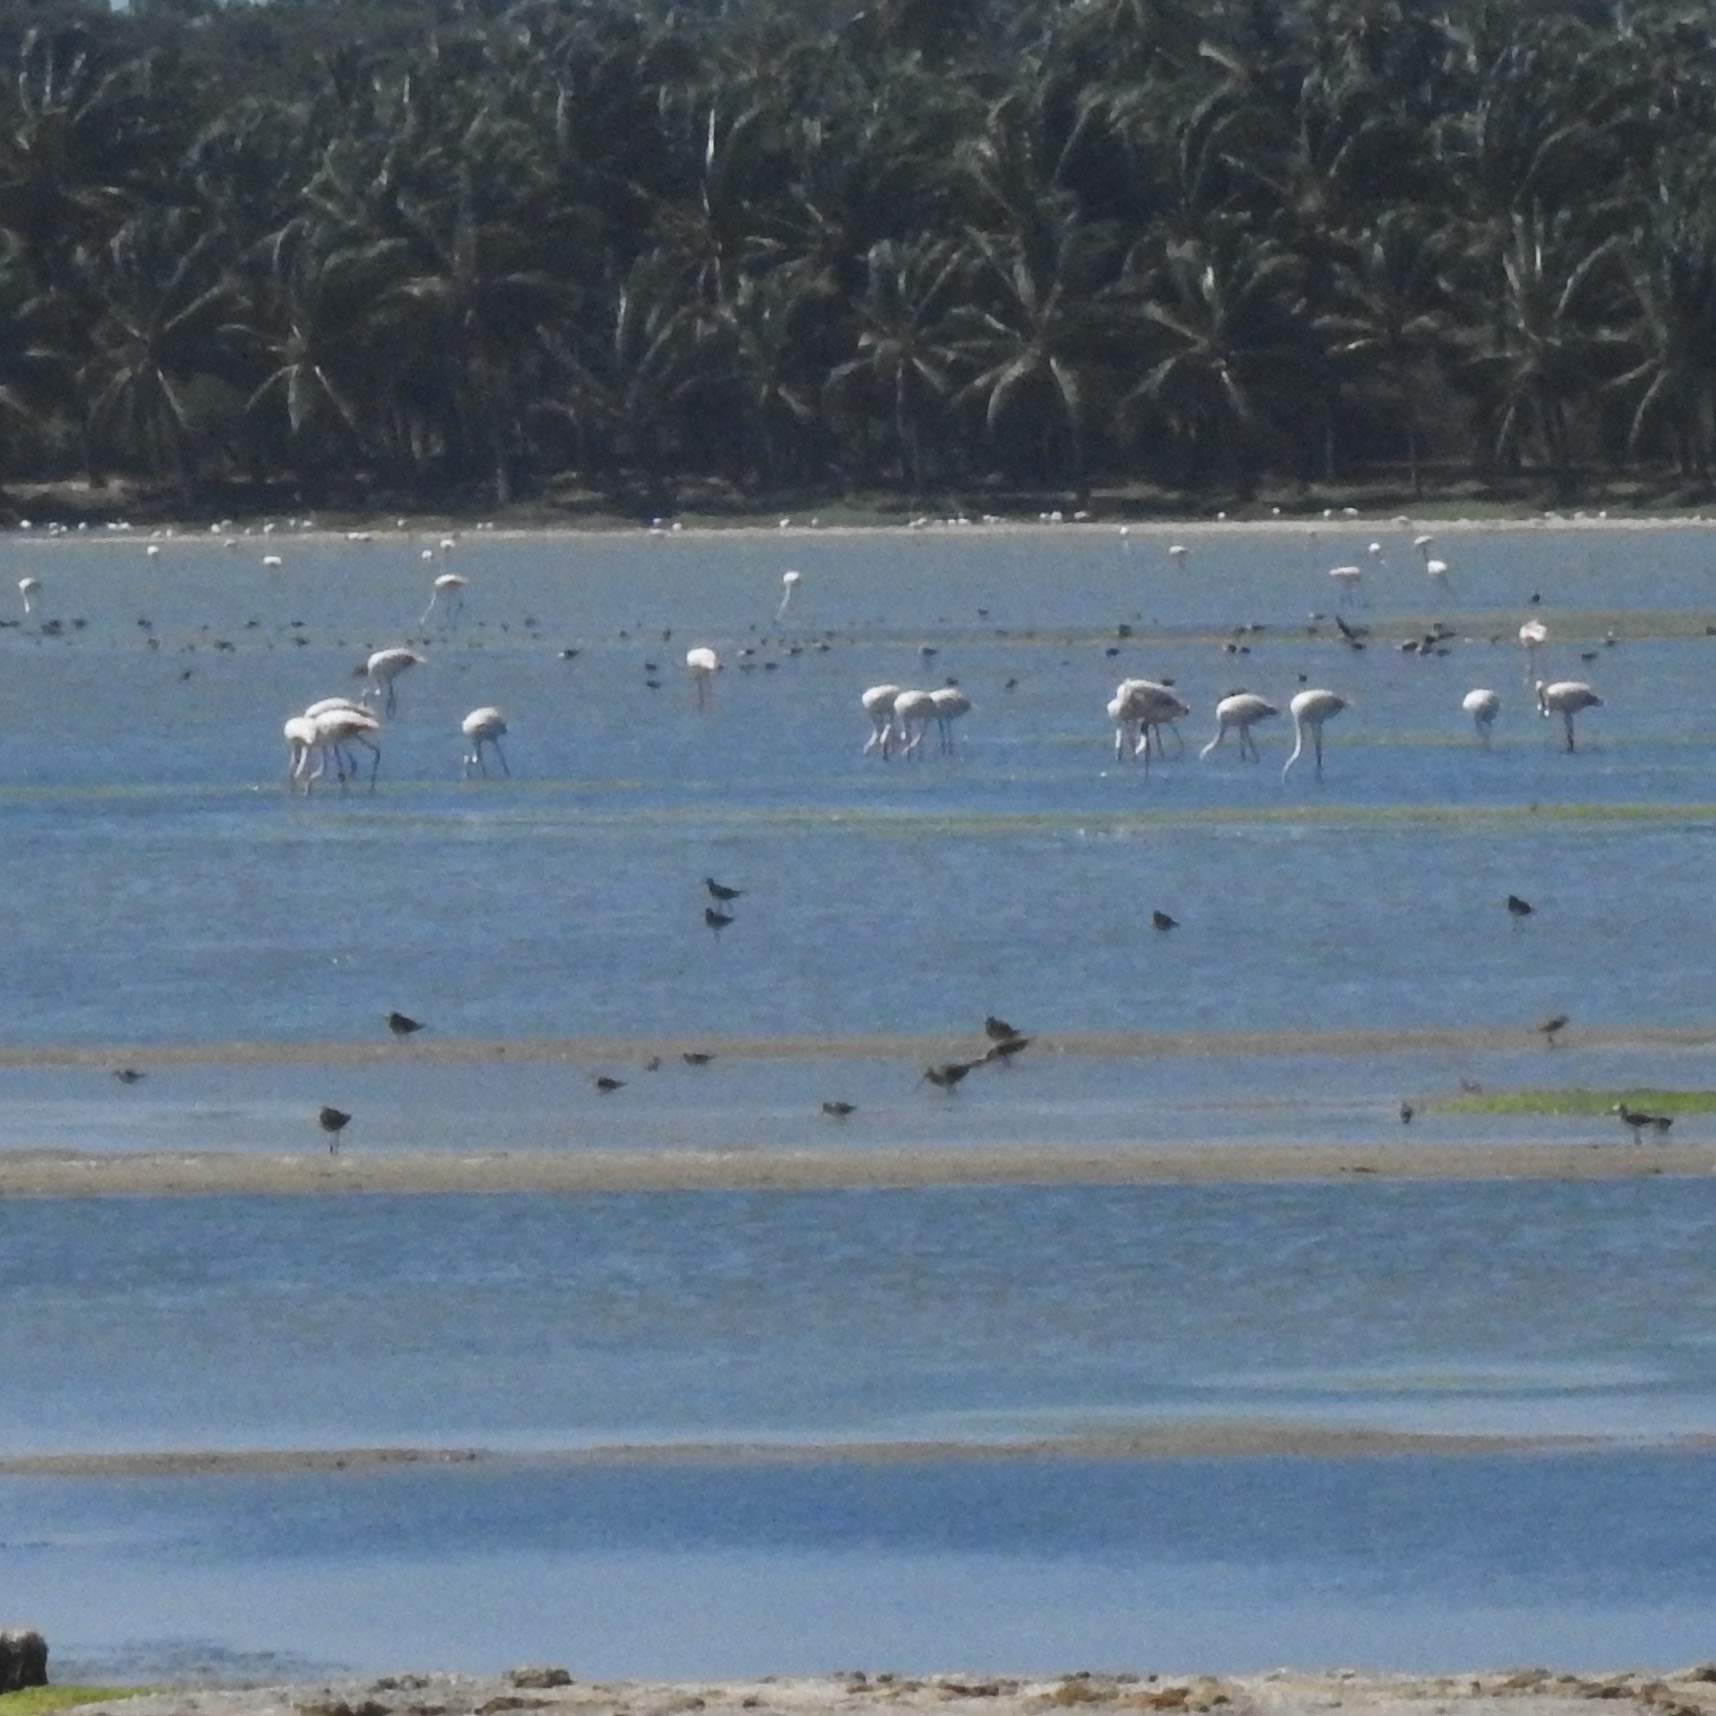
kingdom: Animalia
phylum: Chordata
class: Aves
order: Phoenicopteriformes
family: Phoenicopteridae
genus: Phoenicopterus
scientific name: Phoenicopterus roseus
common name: Greater flamingo
